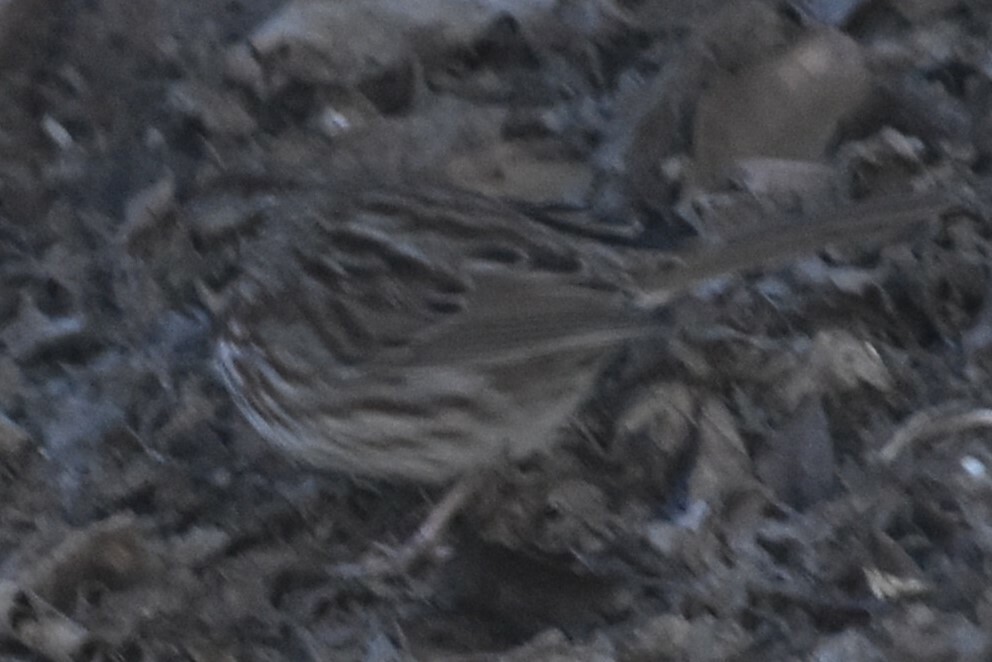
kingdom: Animalia
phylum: Chordata
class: Aves
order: Passeriformes
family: Passerellidae
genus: Melospiza
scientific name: Melospiza melodia
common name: Song sparrow
